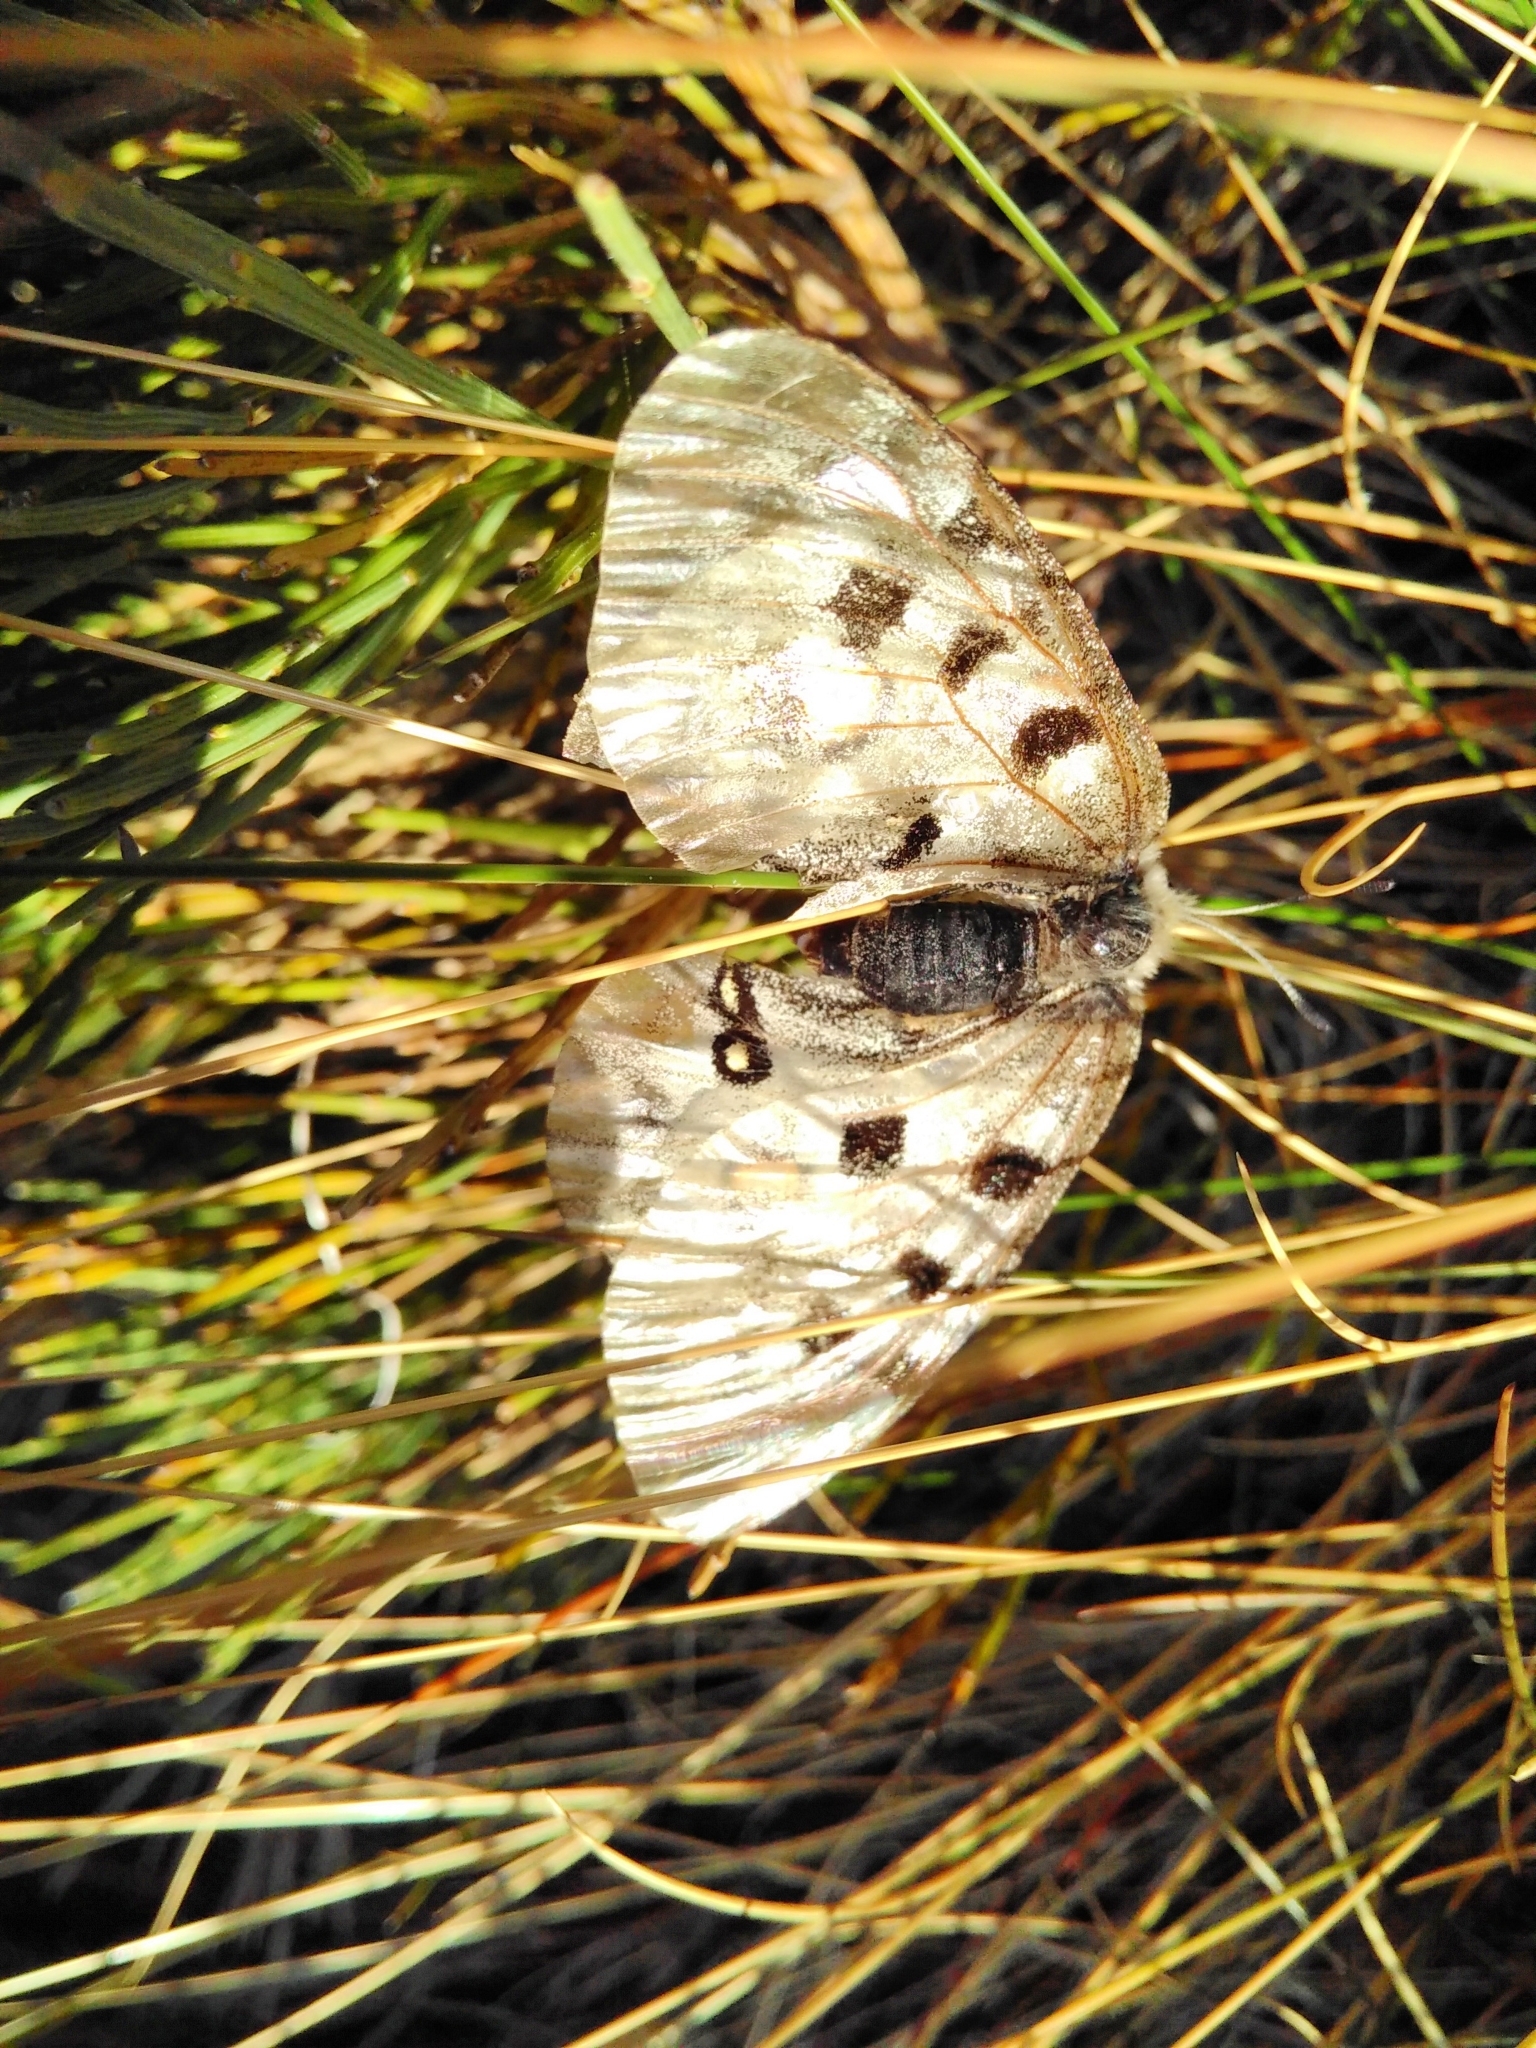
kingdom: Animalia
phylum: Arthropoda
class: Insecta
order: Lepidoptera
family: Papilionidae
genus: Parnassius
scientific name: Parnassius apollo
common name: Apollo
